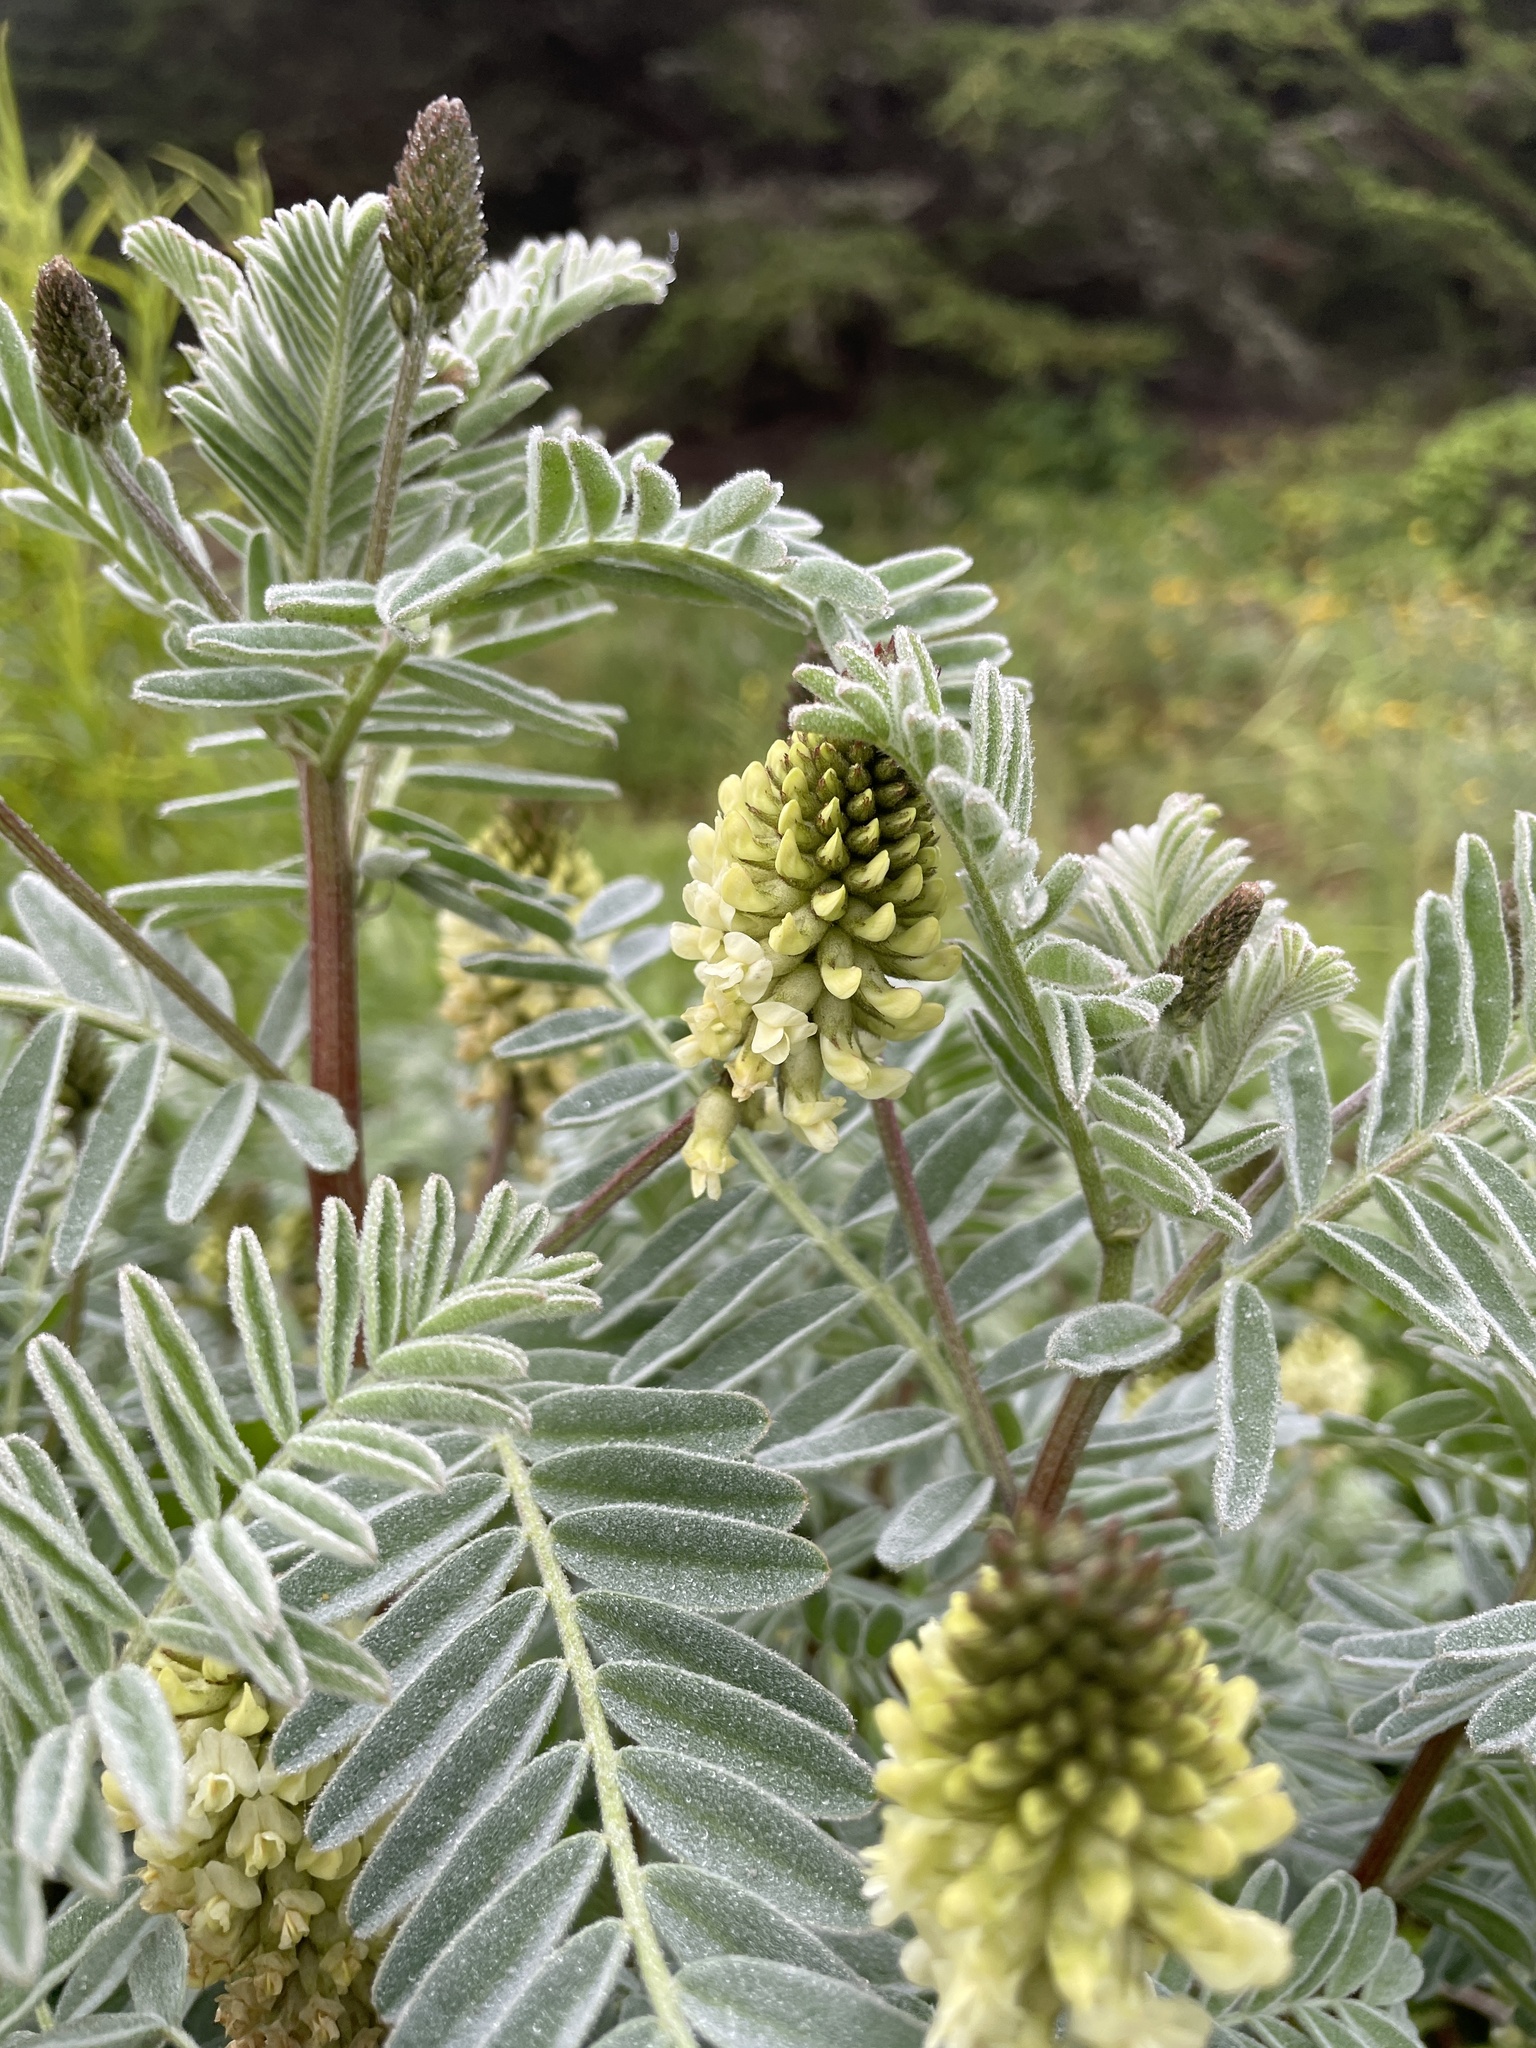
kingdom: Plantae
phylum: Tracheophyta
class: Magnoliopsida
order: Fabales
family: Fabaceae
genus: Astragalus
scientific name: Astragalus pycnostachyus
